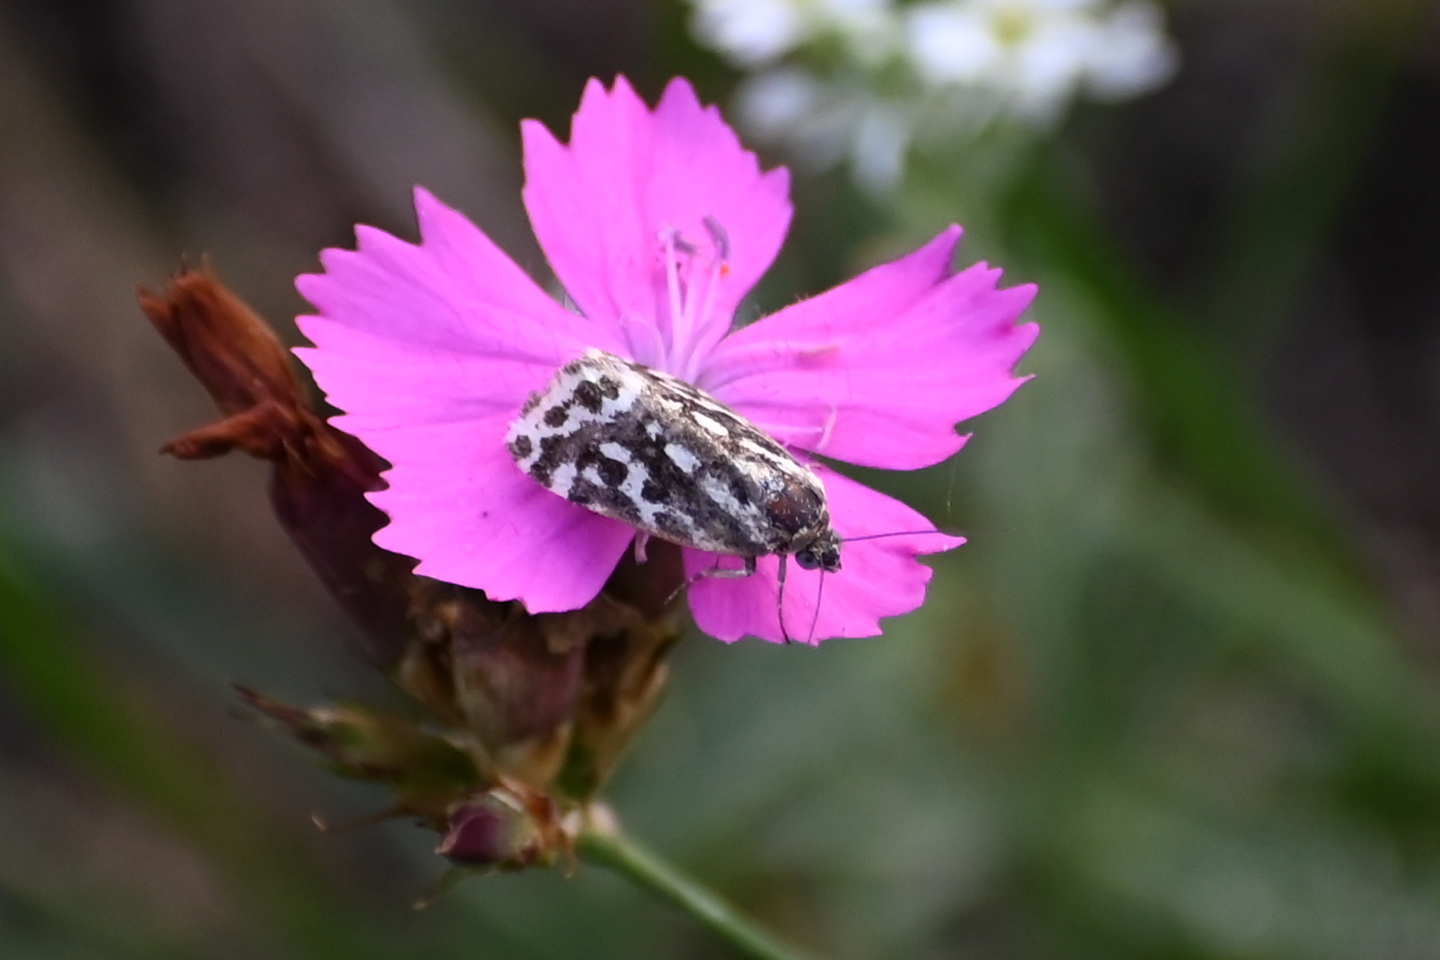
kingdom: Animalia
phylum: Arthropoda
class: Insecta
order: Lepidoptera
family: Noctuidae
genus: Acontia
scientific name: Acontia trabealis
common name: Spotted sulphur
